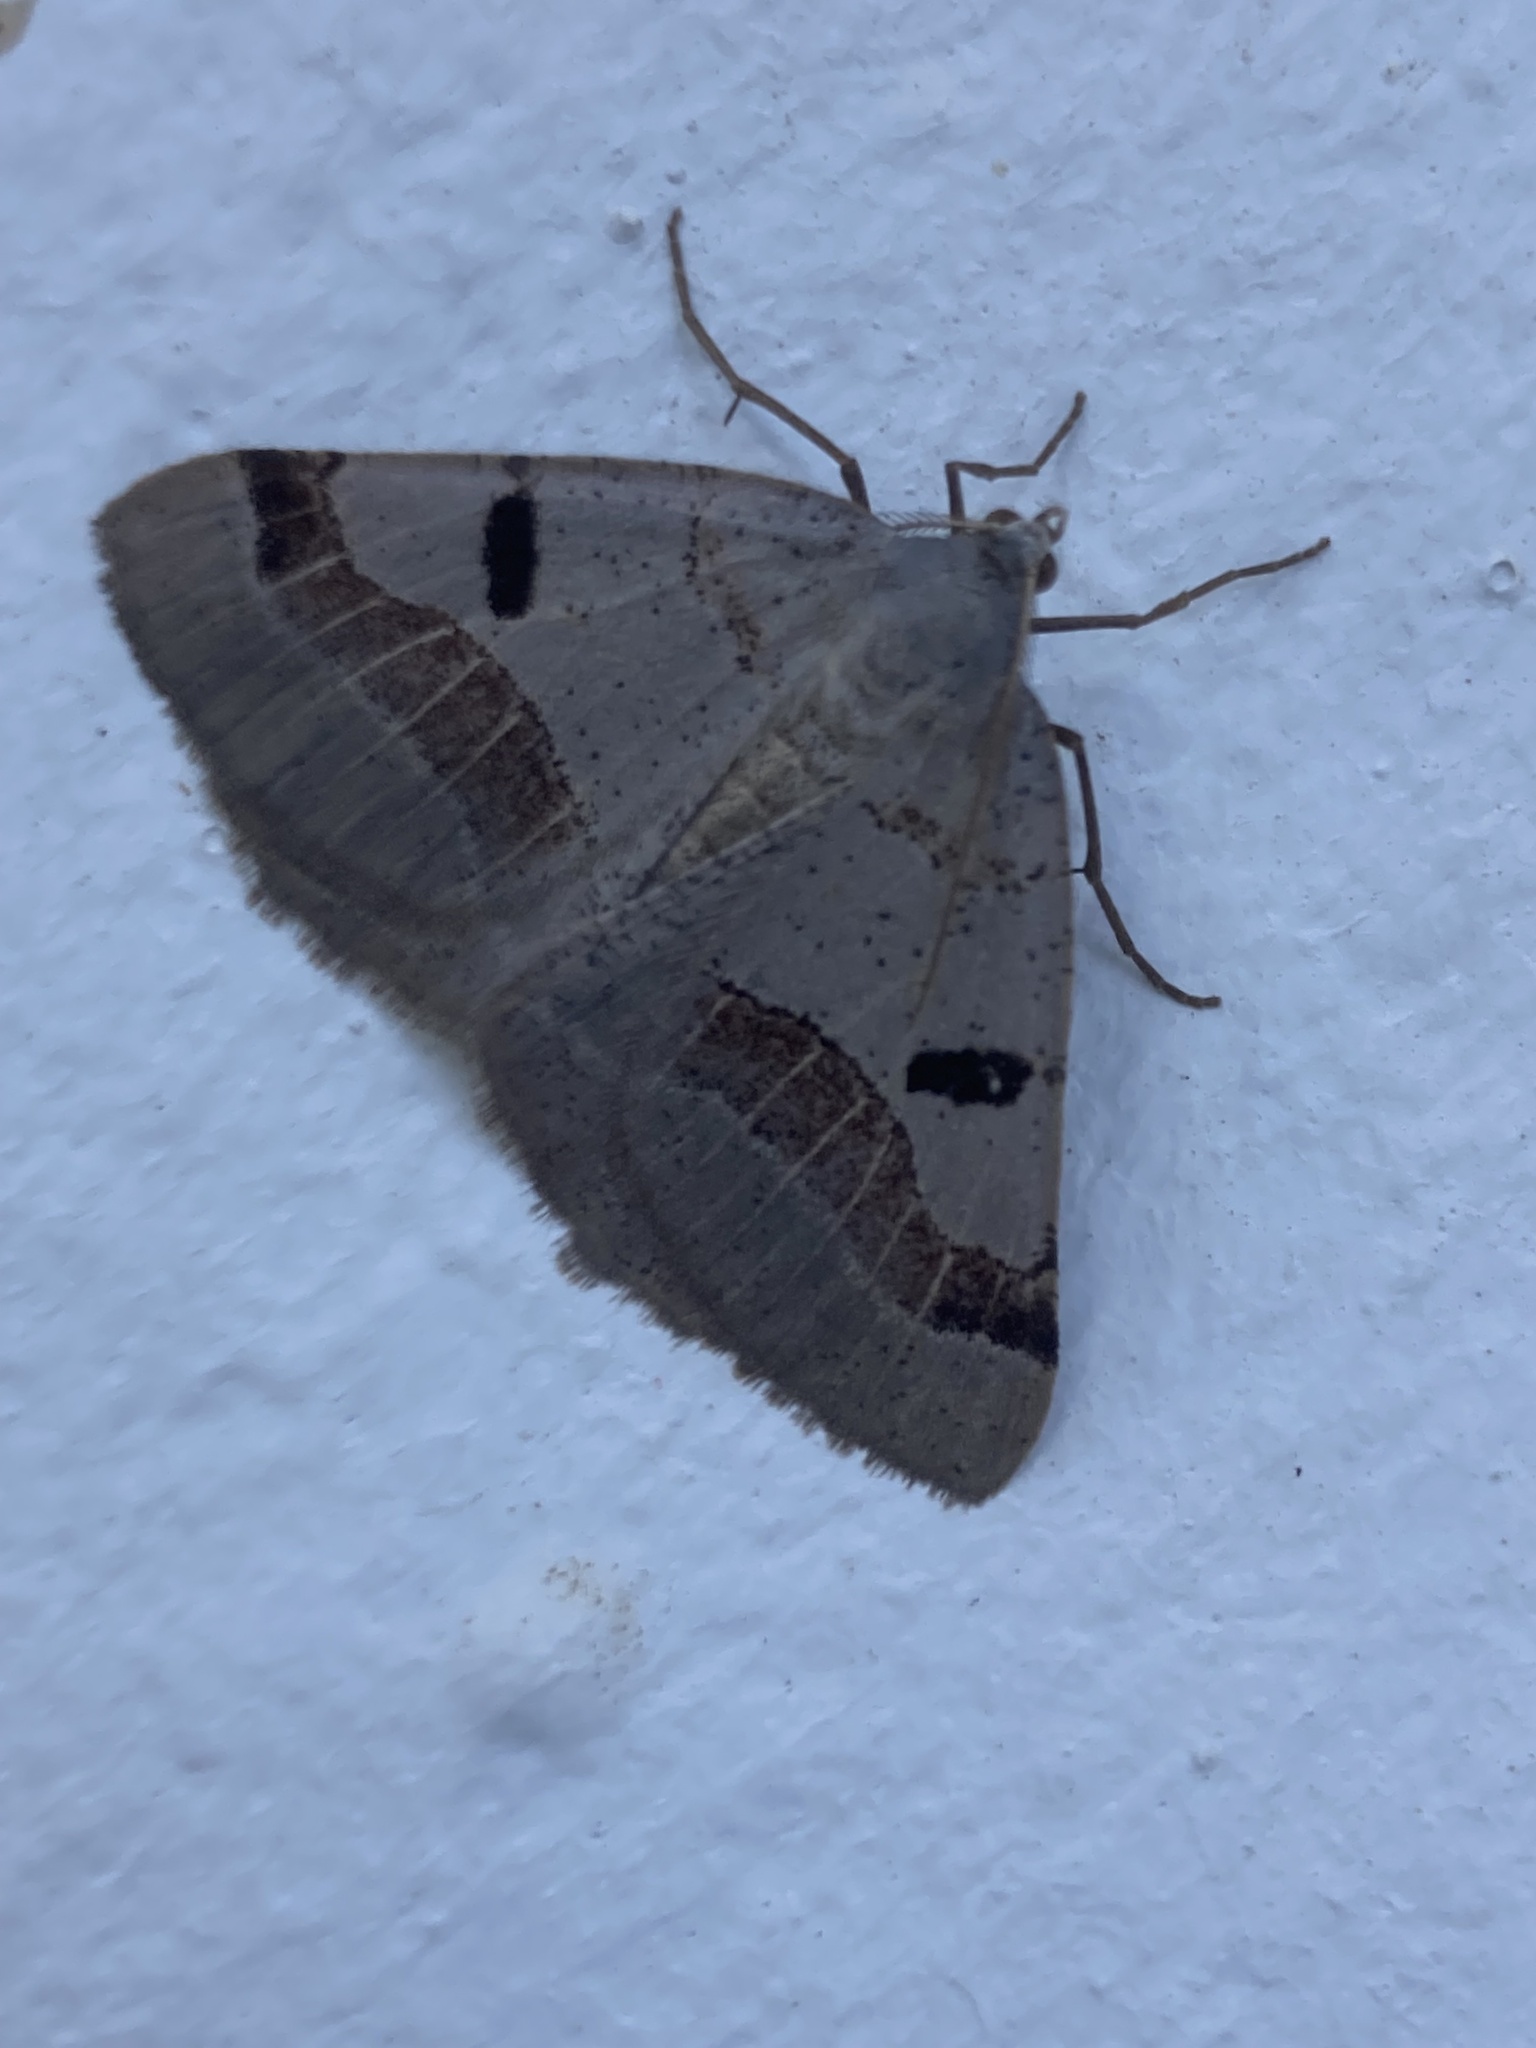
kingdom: Animalia
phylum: Arthropoda
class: Insecta
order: Lepidoptera
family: Geometridae
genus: Itame
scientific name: Itame vincularia
